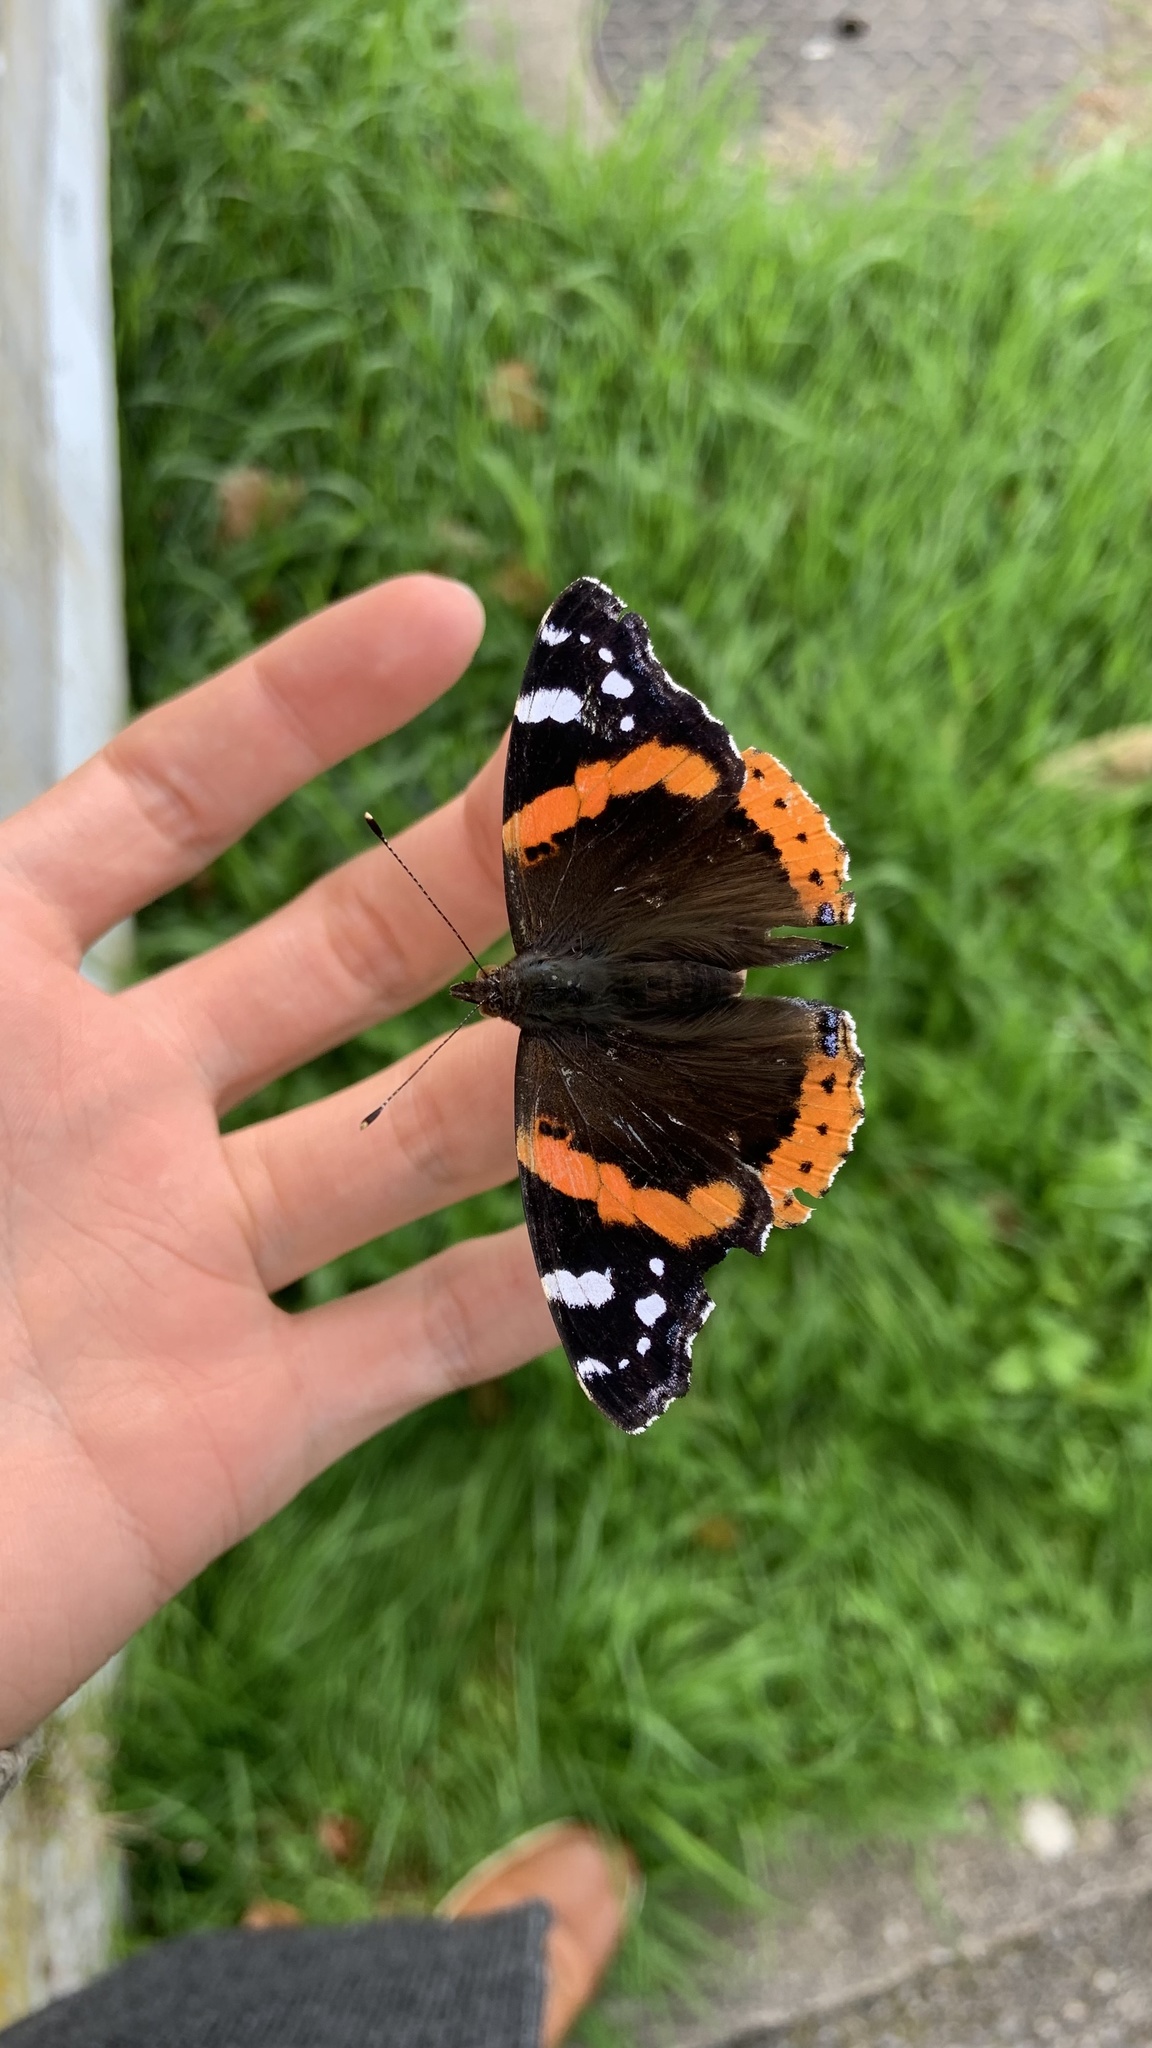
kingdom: Animalia
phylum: Arthropoda
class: Insecta
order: Lepidoptera
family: Nymphalidae
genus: Vanessa
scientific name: Vanessa atalanta
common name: Red admiral
